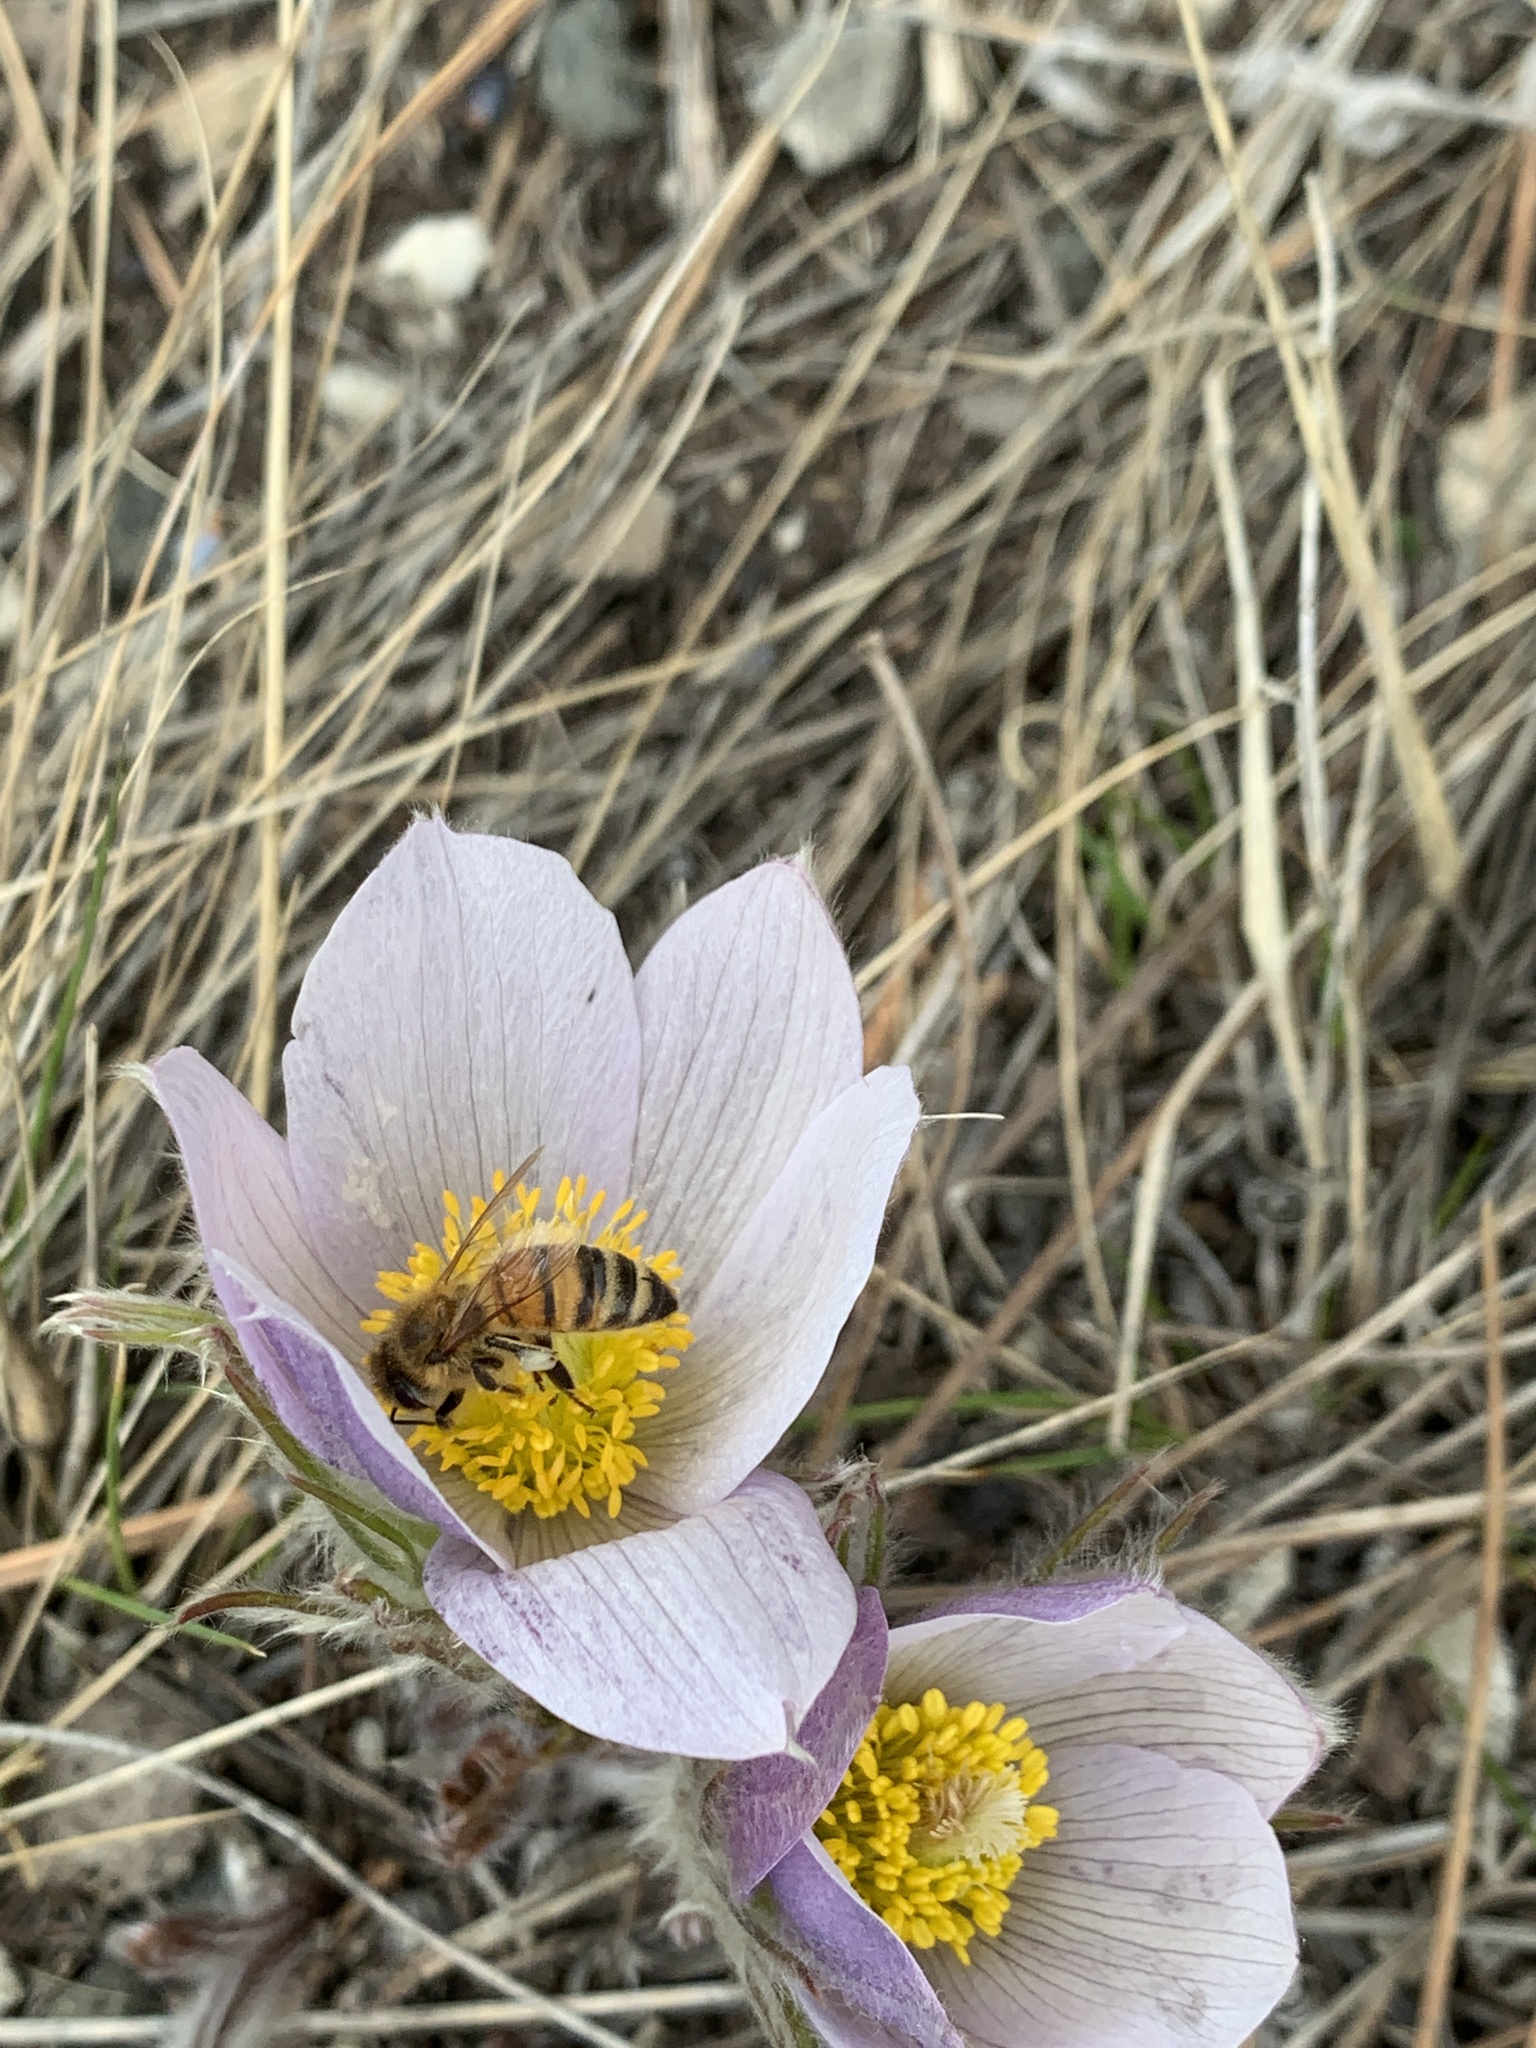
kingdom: Animalia
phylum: Arthropoda
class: Insecta
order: Hymenoptera
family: Apidae
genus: Apis
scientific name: Apis mellifera
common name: Honey bee
